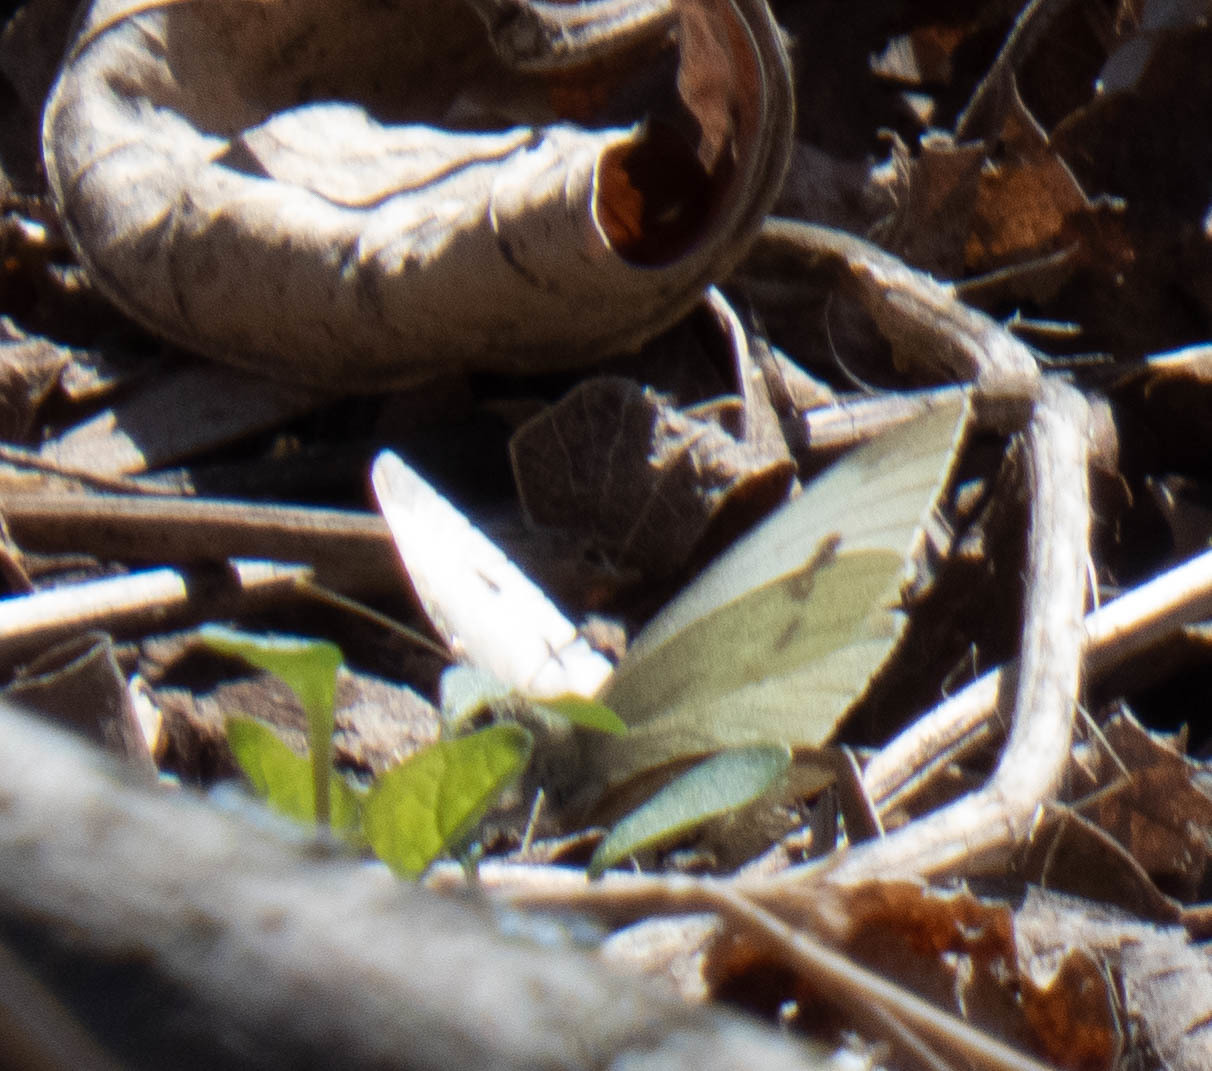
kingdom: Animalia
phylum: Arthropoda
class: Insecta
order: Lepidoptera
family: Pieridae
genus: Pieris
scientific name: Pieris rapae
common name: Small white
